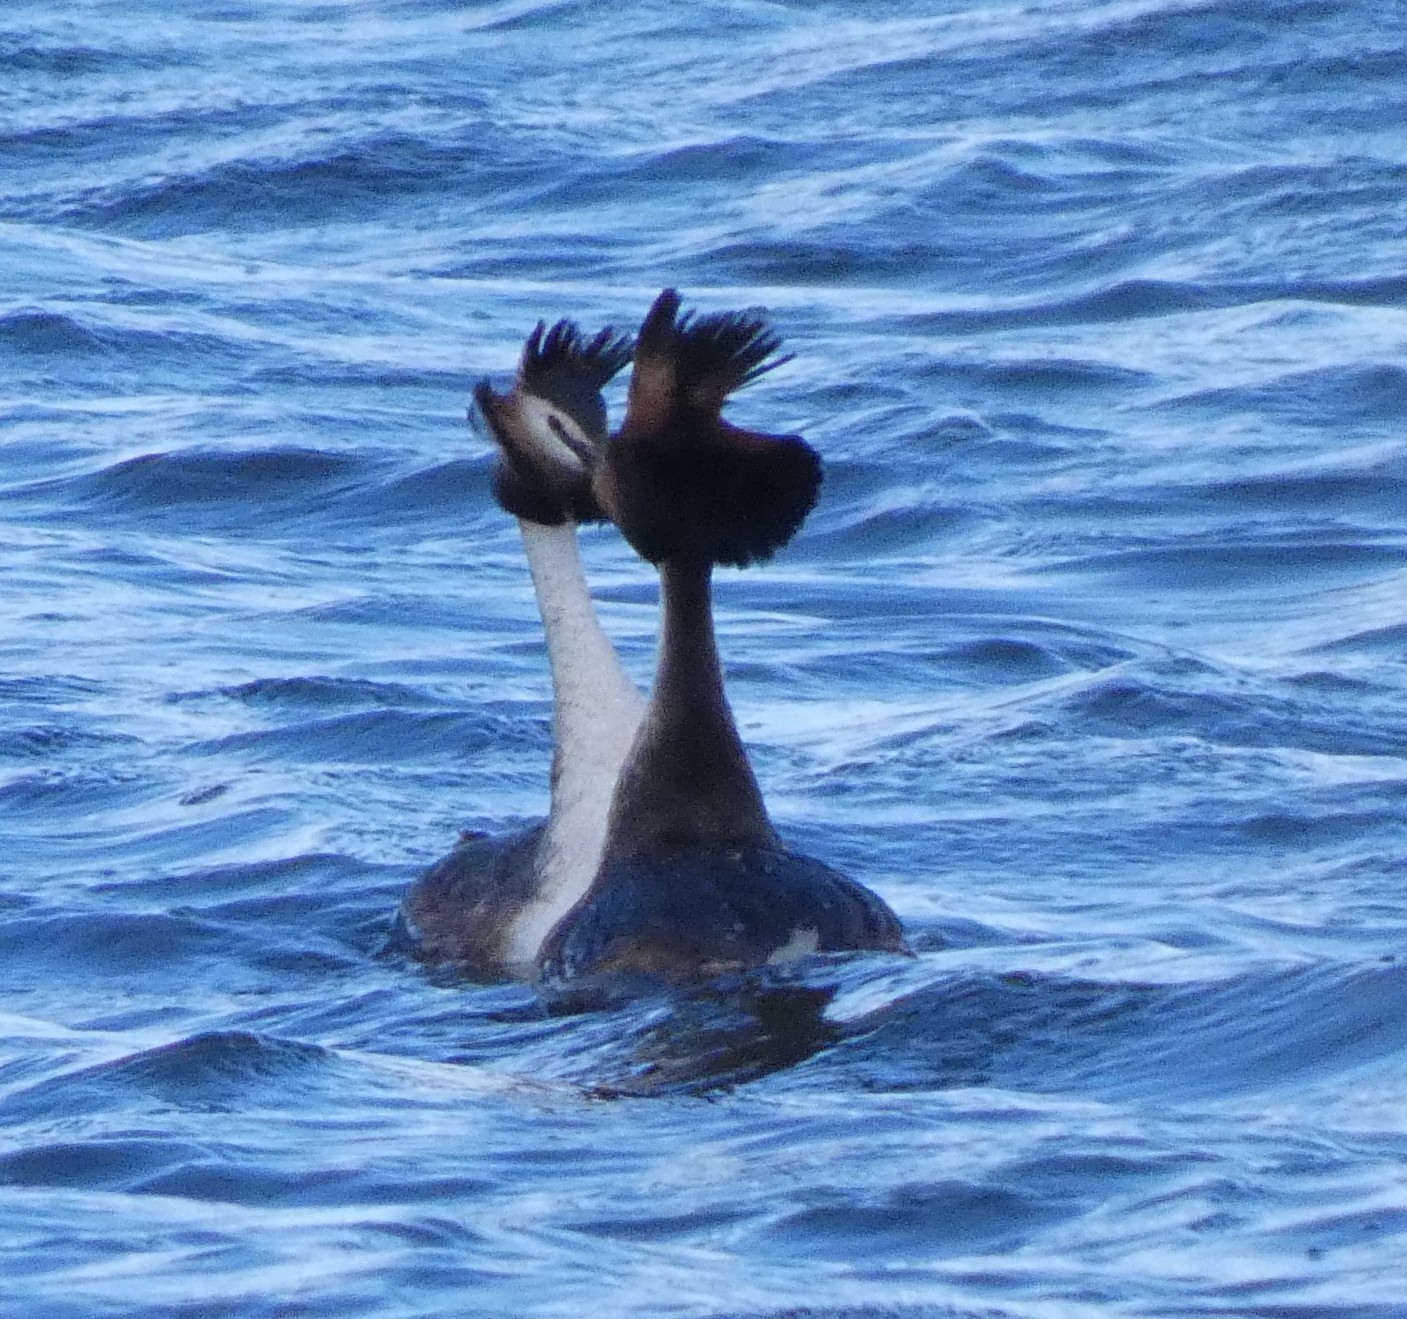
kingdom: Animalia
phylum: Chordata
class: Aves
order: Podicipediformes
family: Podicipedidae
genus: Podiceps
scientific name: Podiceps cristatus
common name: Great crested grebe
